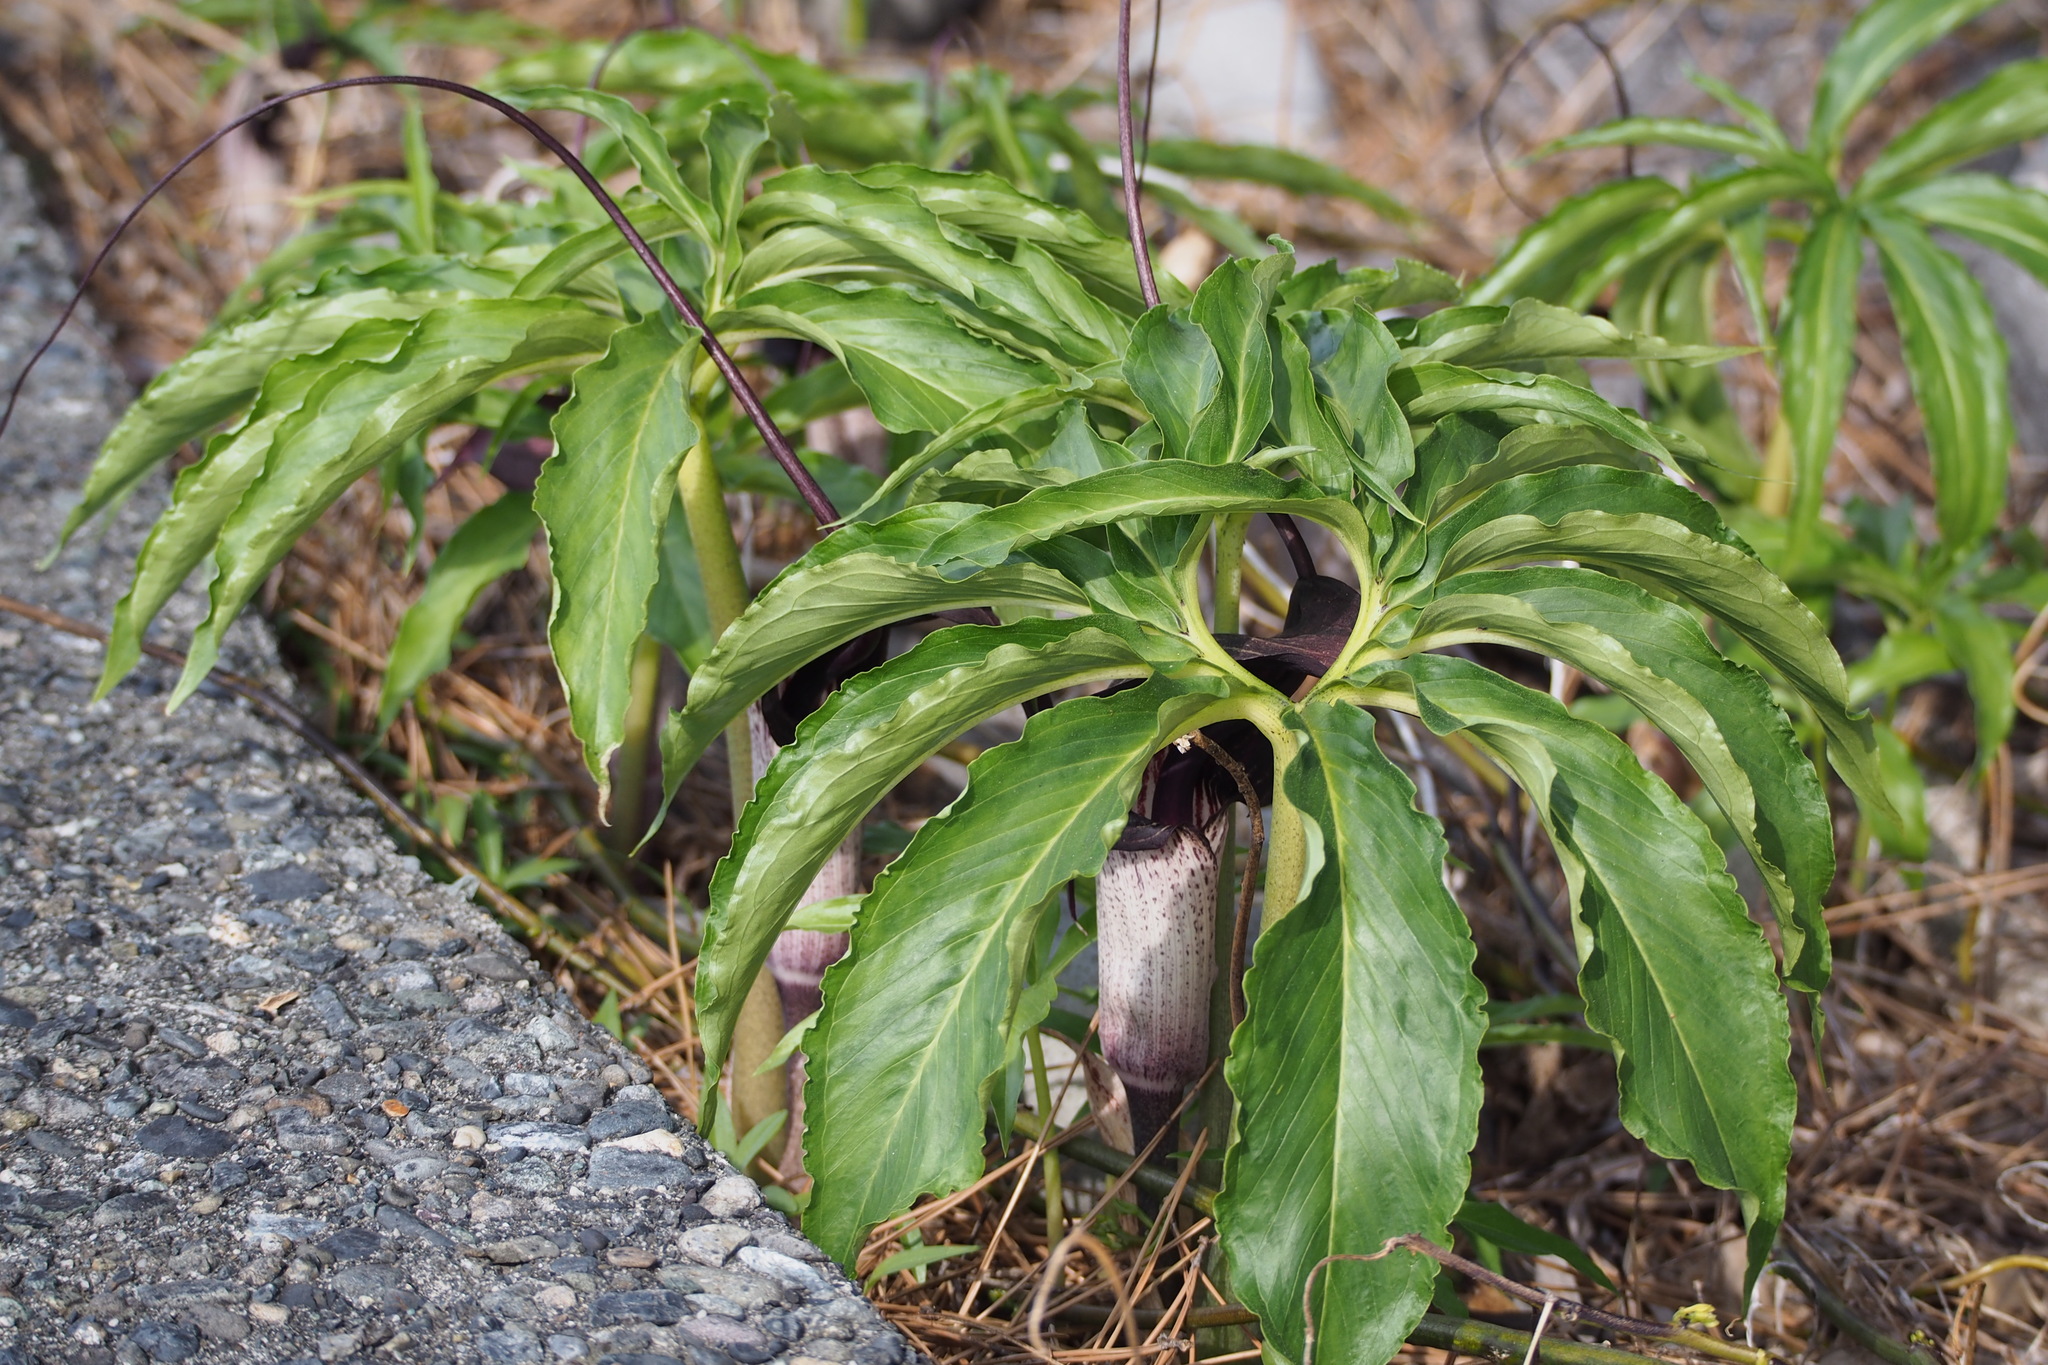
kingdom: Plantae
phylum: Tracheophyta
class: Liliopsida
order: Alismatales
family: Araceae
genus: Arisaema
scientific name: Arisaema thunbergii
